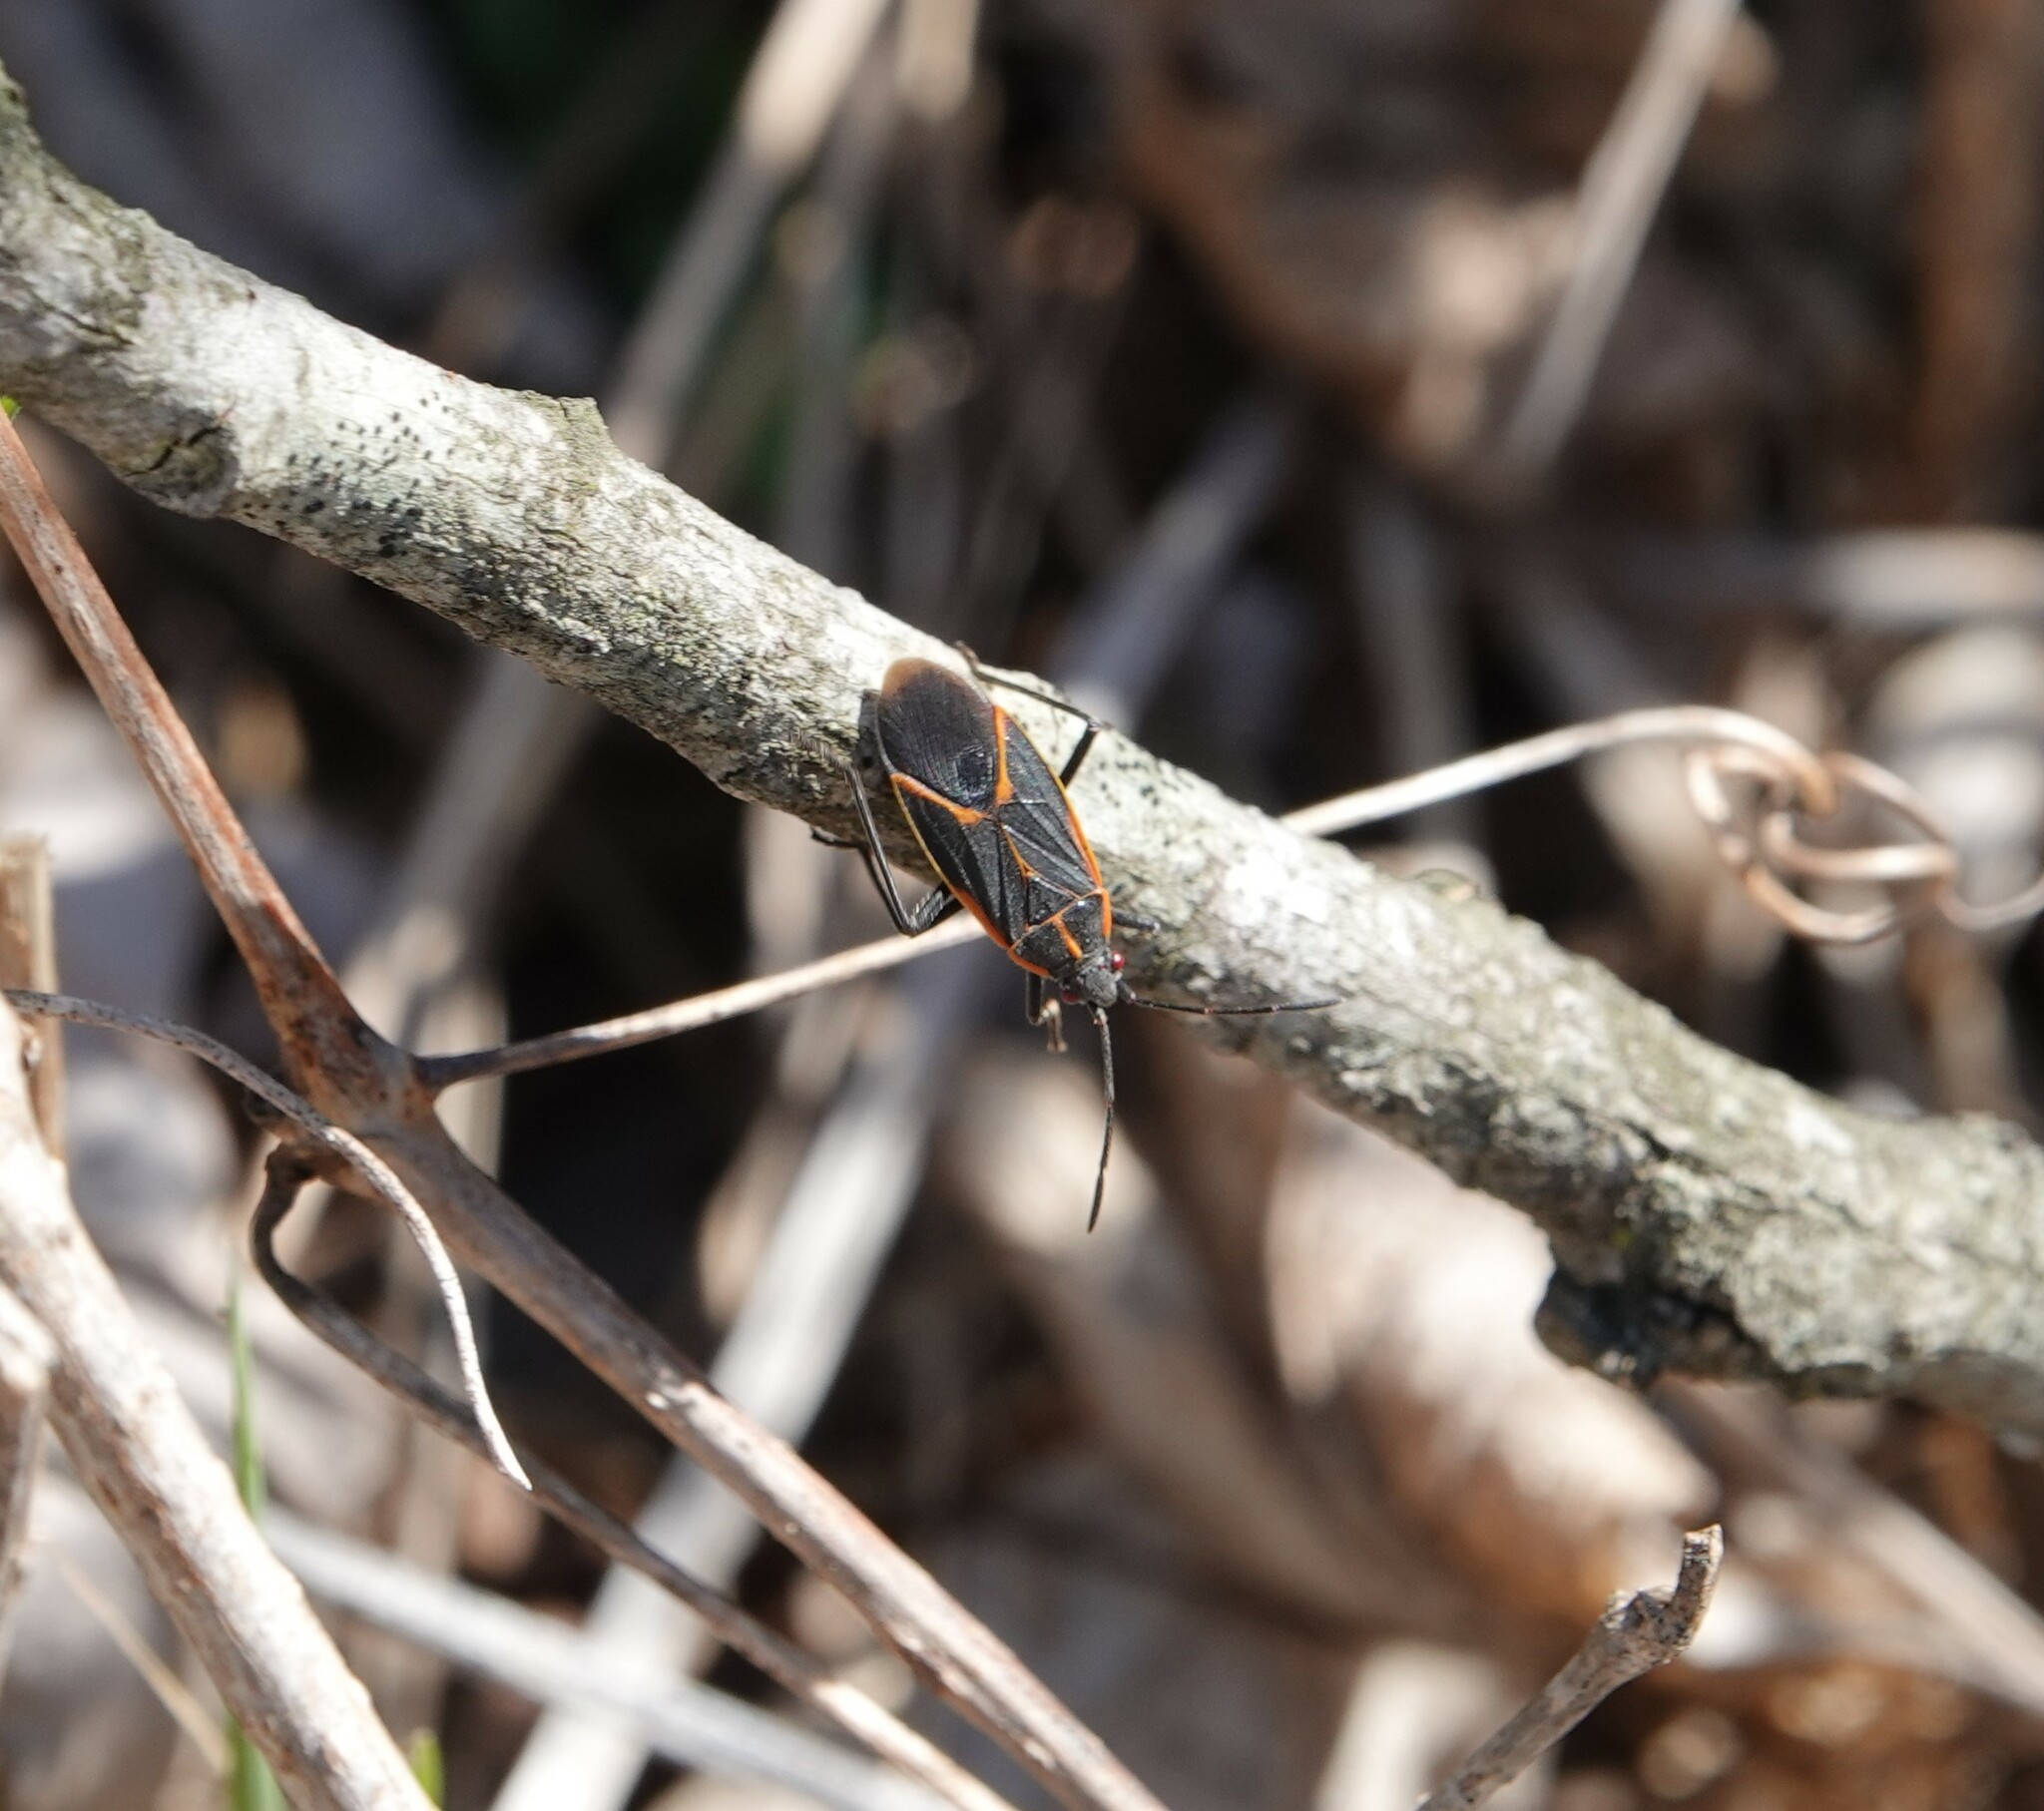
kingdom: Animalia
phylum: Arthropoda
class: Insecta
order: Hemiptera
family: Rhopalidae
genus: Boisea
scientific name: Boisea trivittata
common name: Boxelder bug
